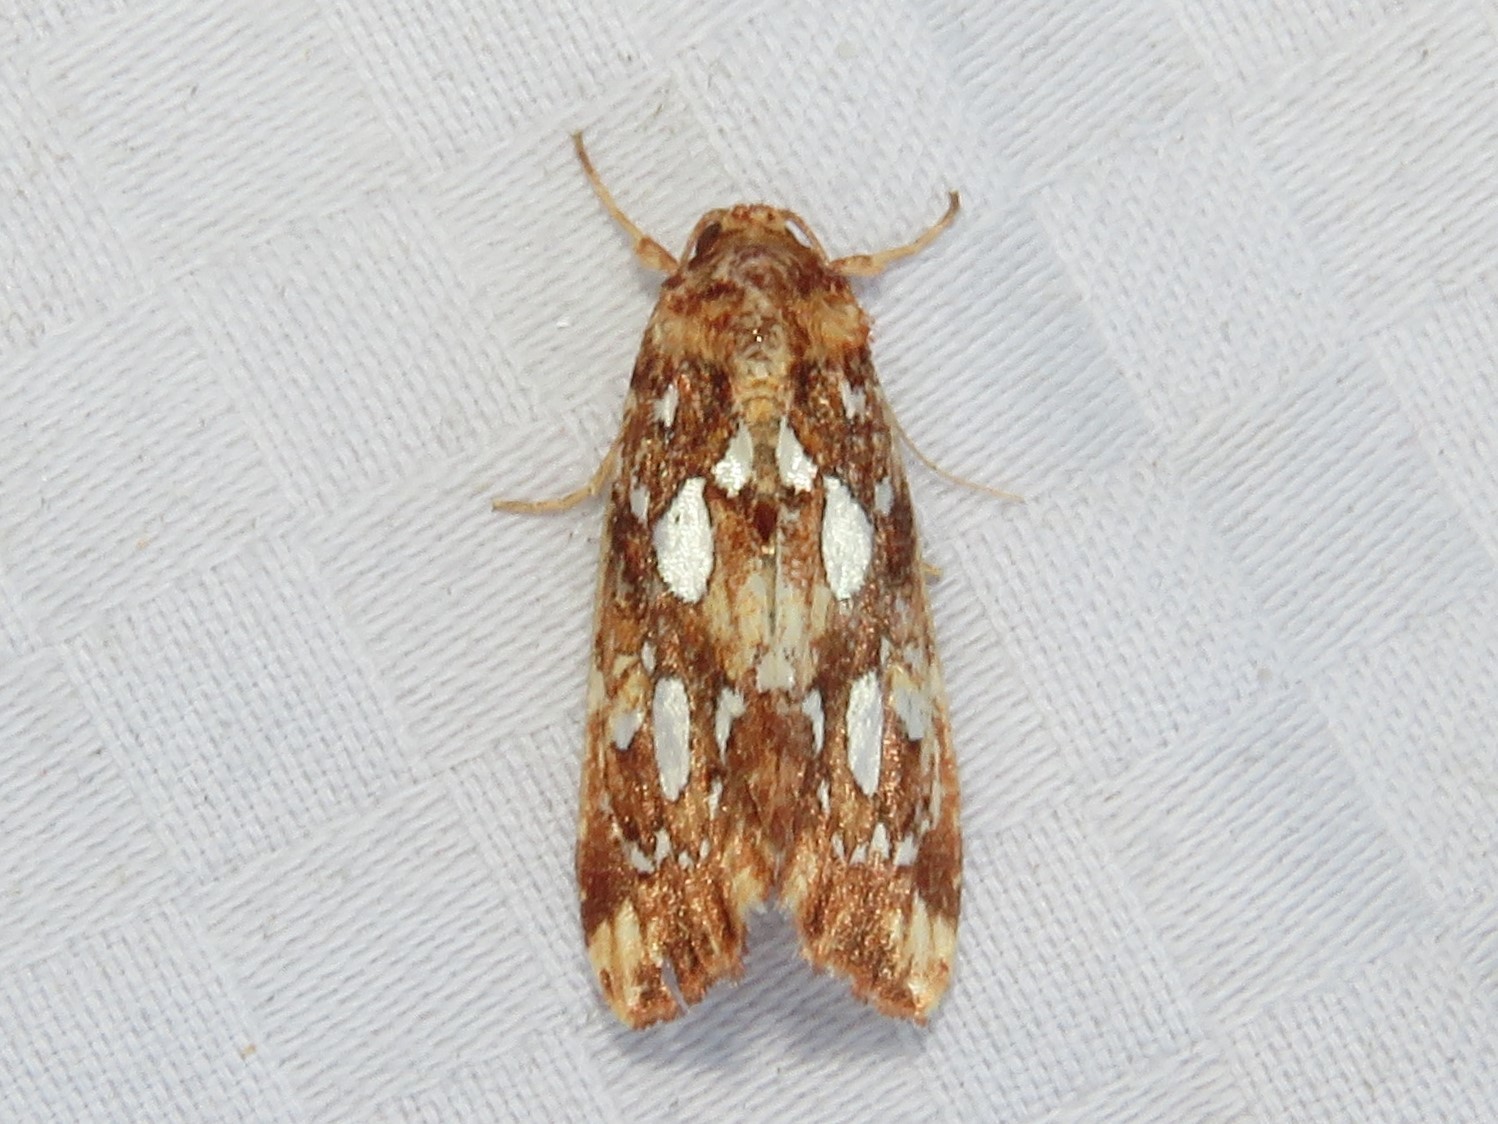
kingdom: Animalia
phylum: Arthropoda
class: Insecta
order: Lepidoptera
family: Noctuidae
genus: Callopistria
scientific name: Callopistria cordata
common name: Silver-spotted fern moth
